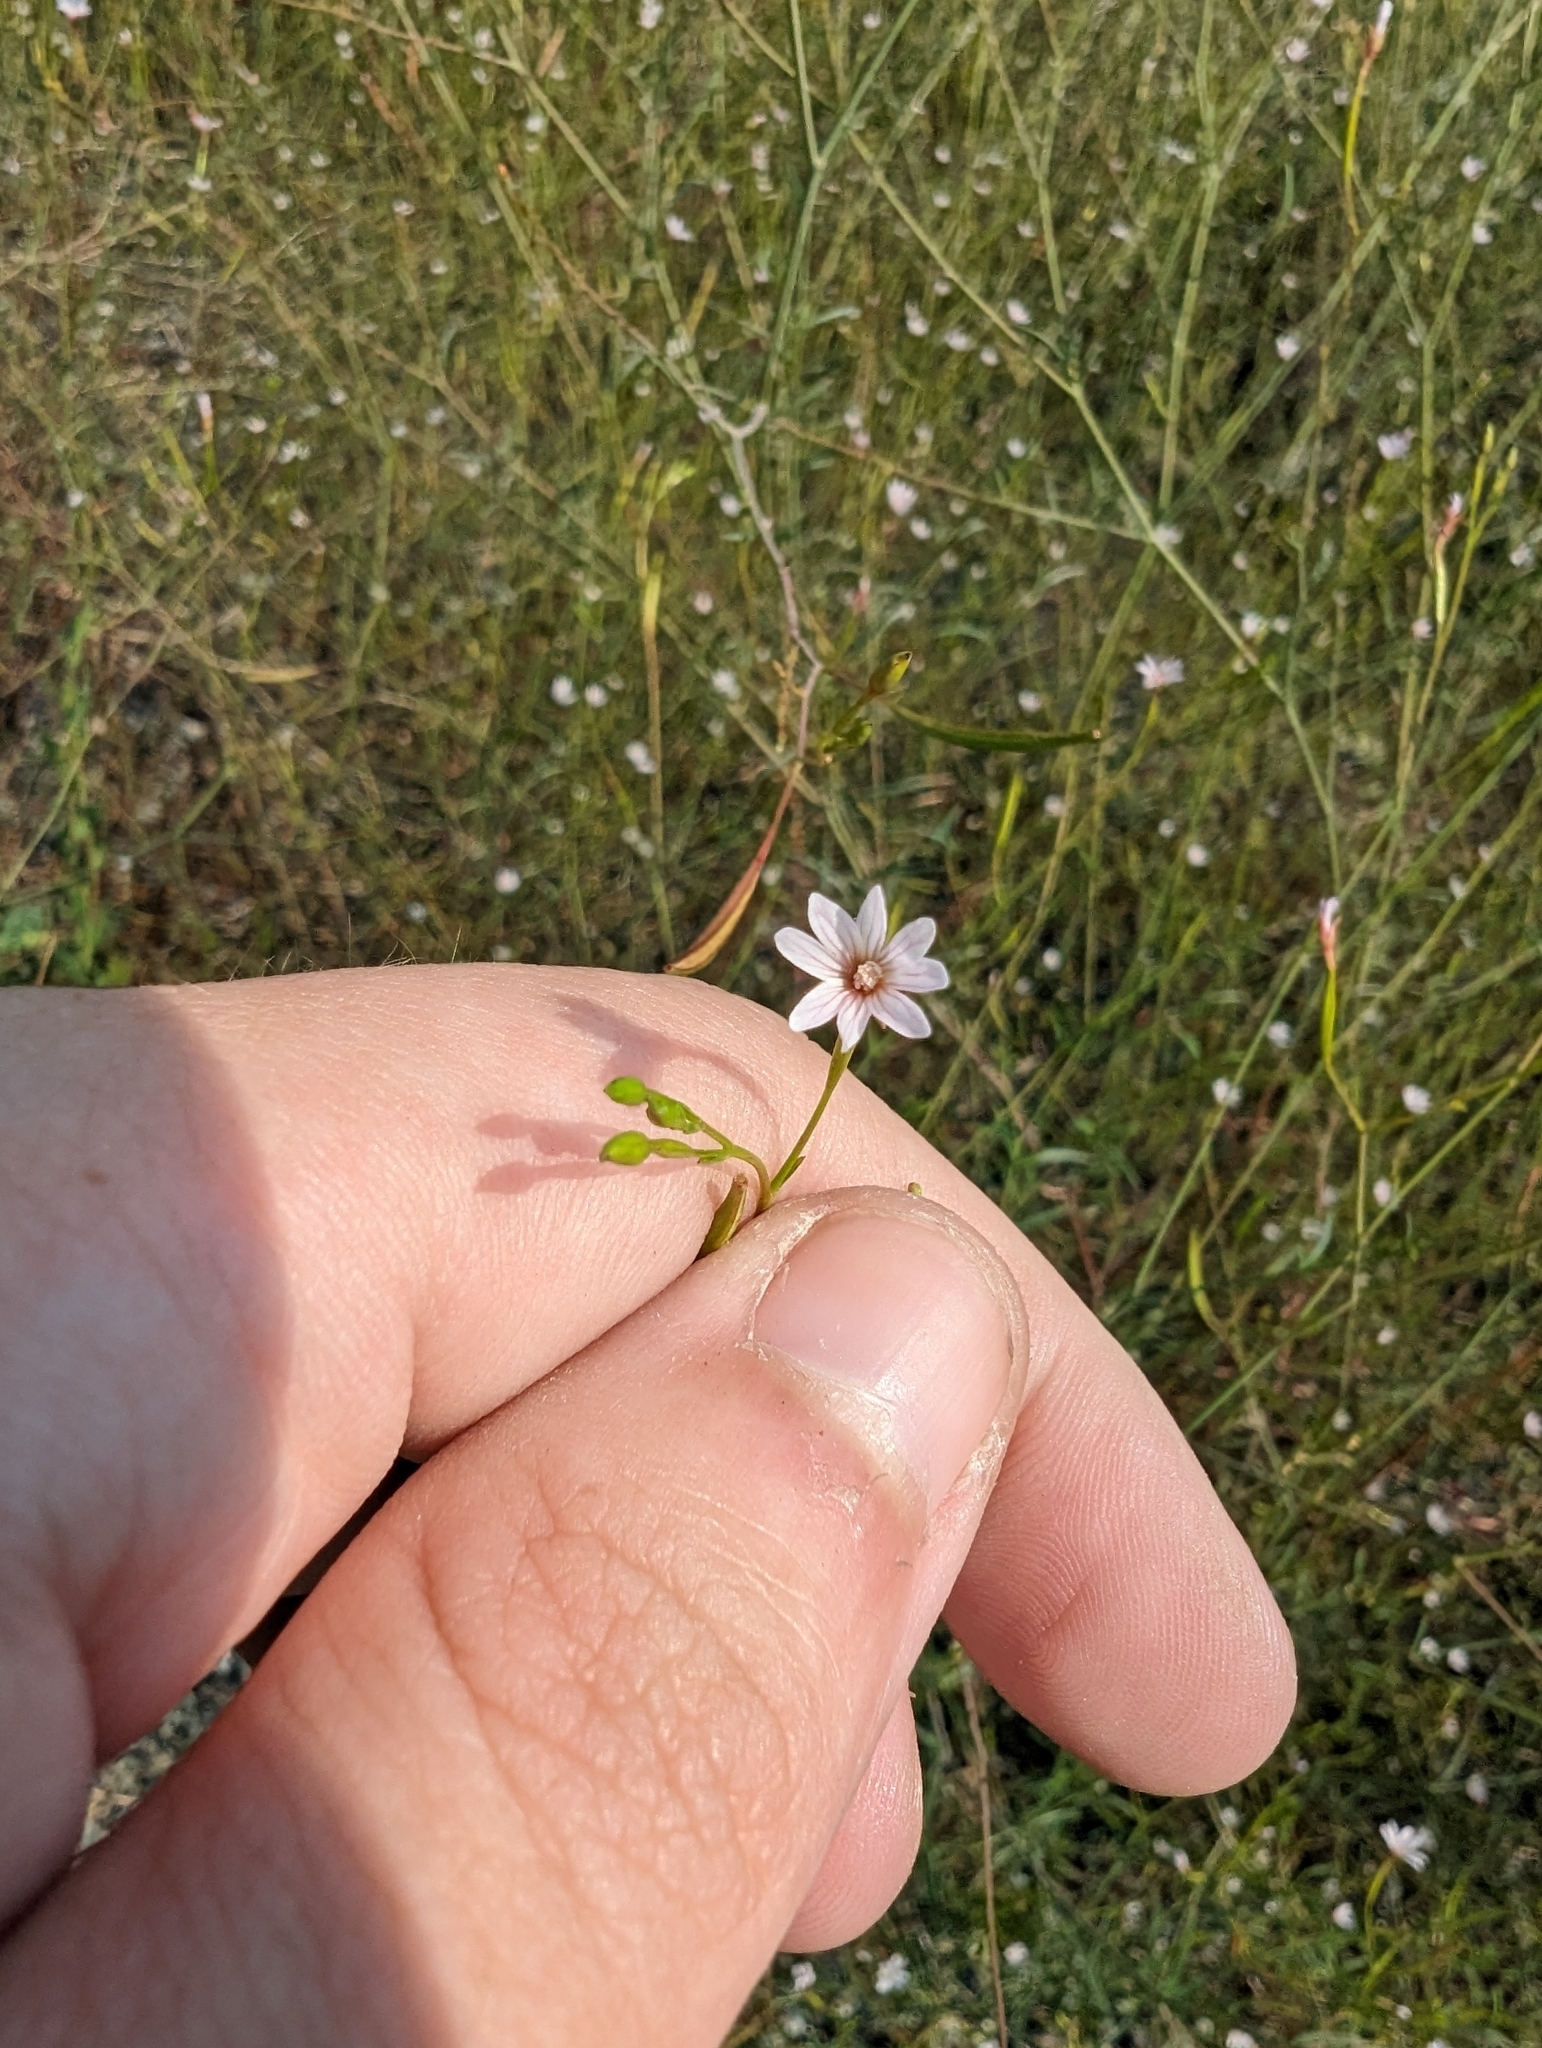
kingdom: Plantae
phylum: Tracheophyta
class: Magnoliopsida
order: Myrtales
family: Onagraceae
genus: Epilobium
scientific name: Epilobium brachycarpum
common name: Annual willowherb
